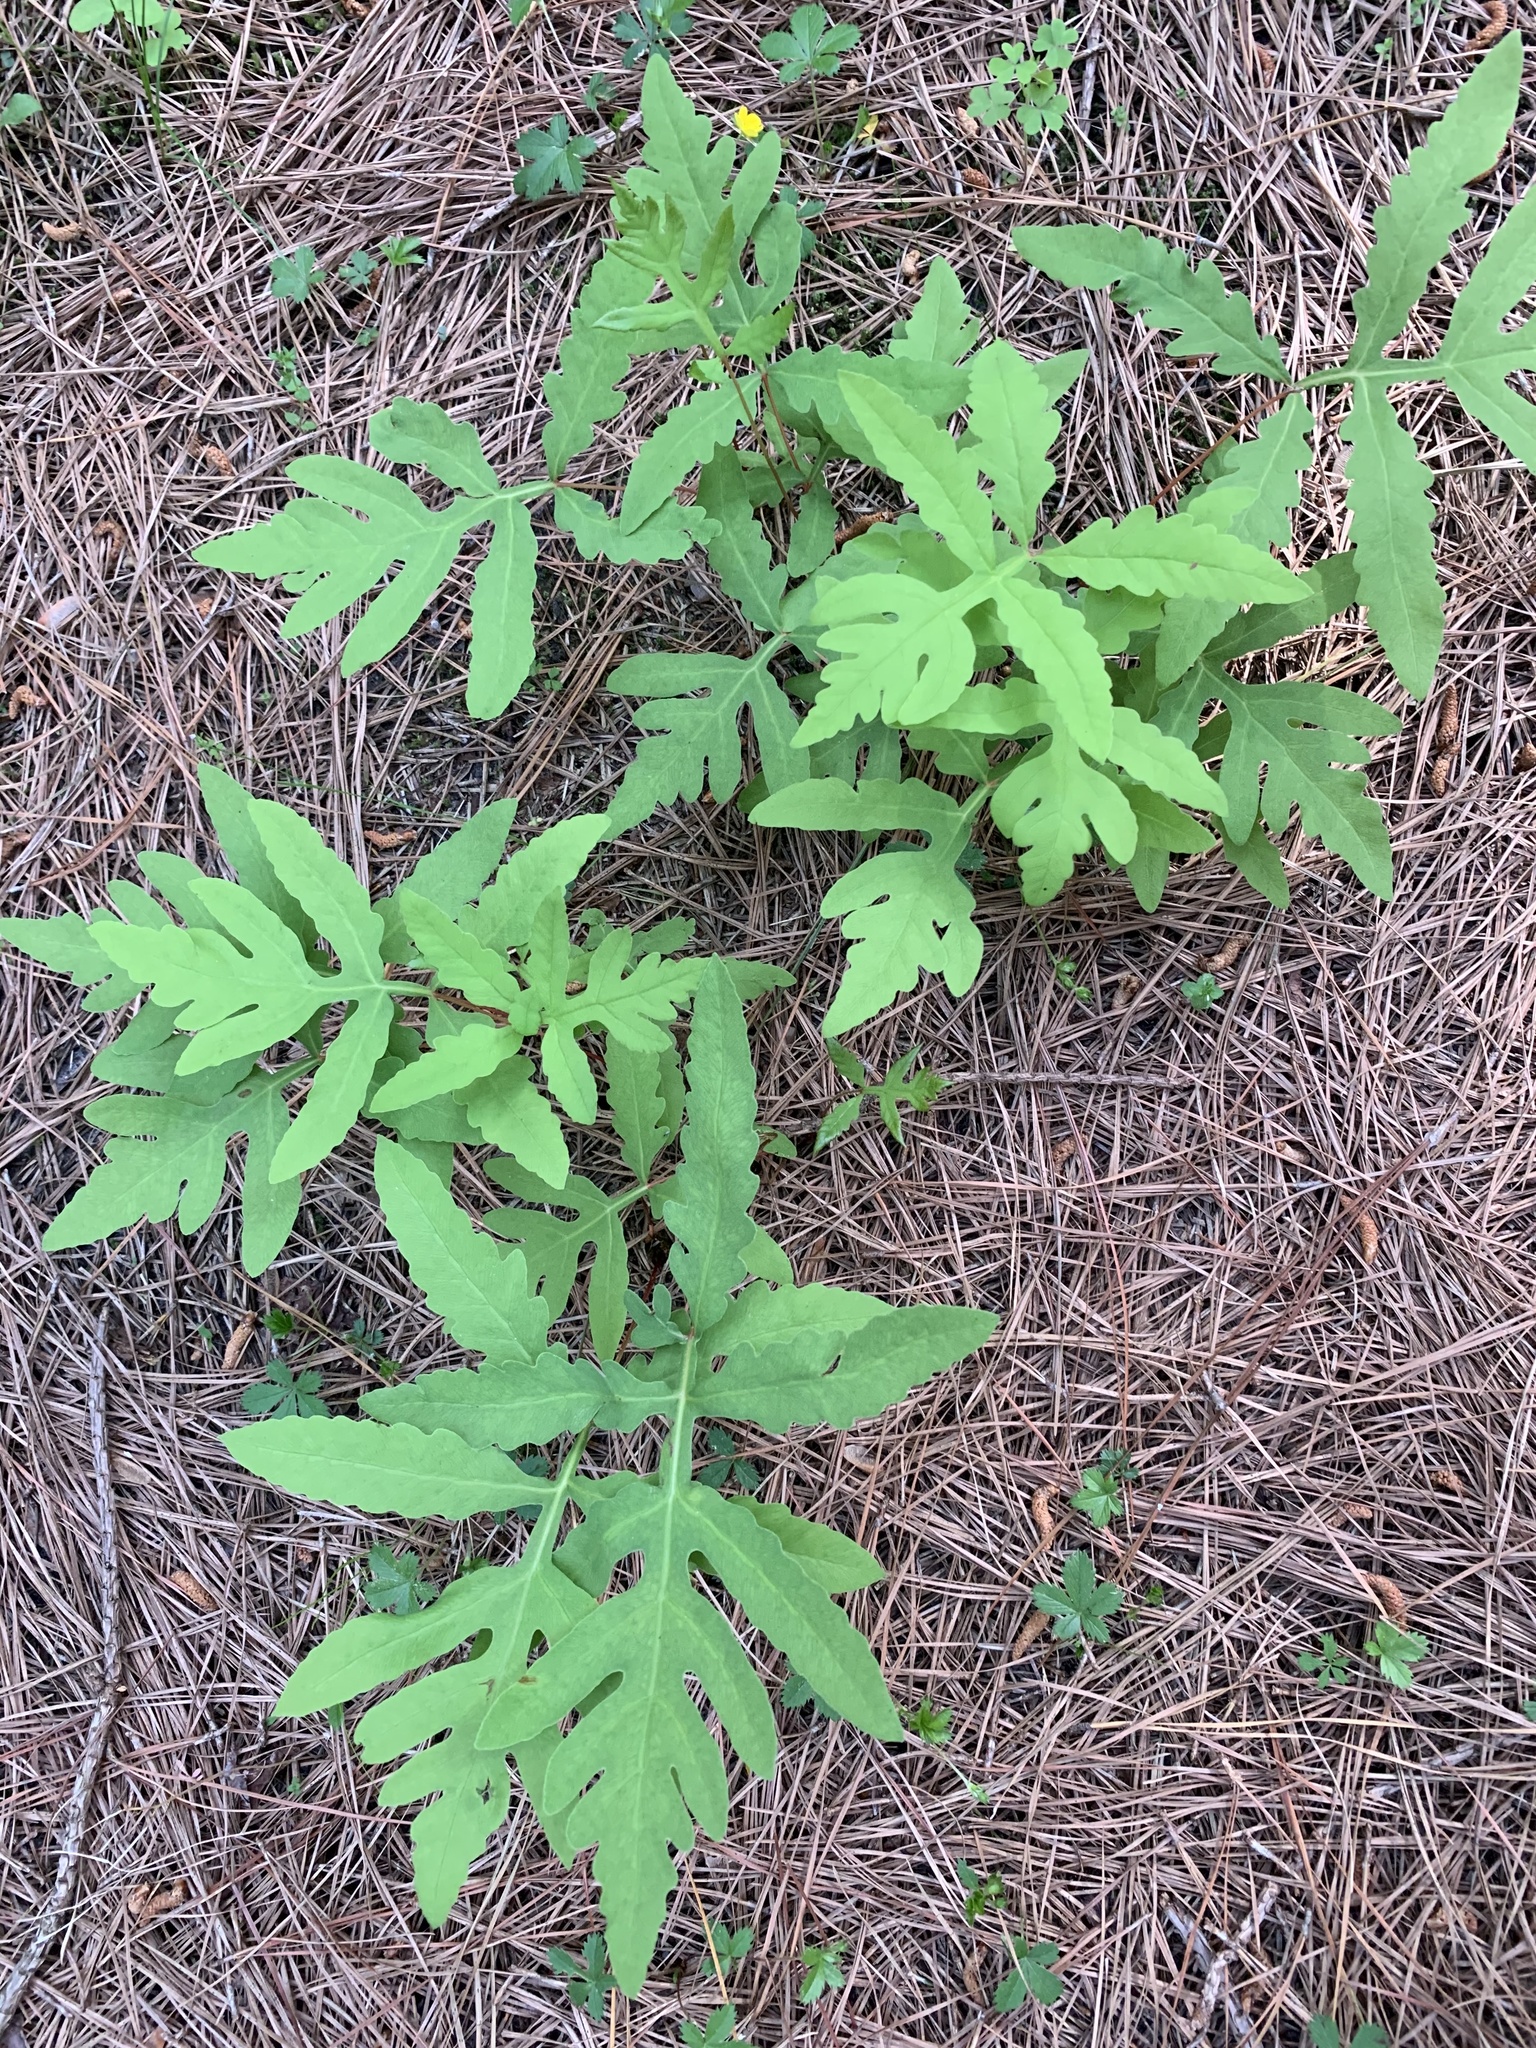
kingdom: Plantae
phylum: Tracheophyta
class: Polypodiopsida
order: Polypodiales
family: Onocleaceae
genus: Onoclea
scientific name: Onoclea sensibilis
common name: Sensitive fern
